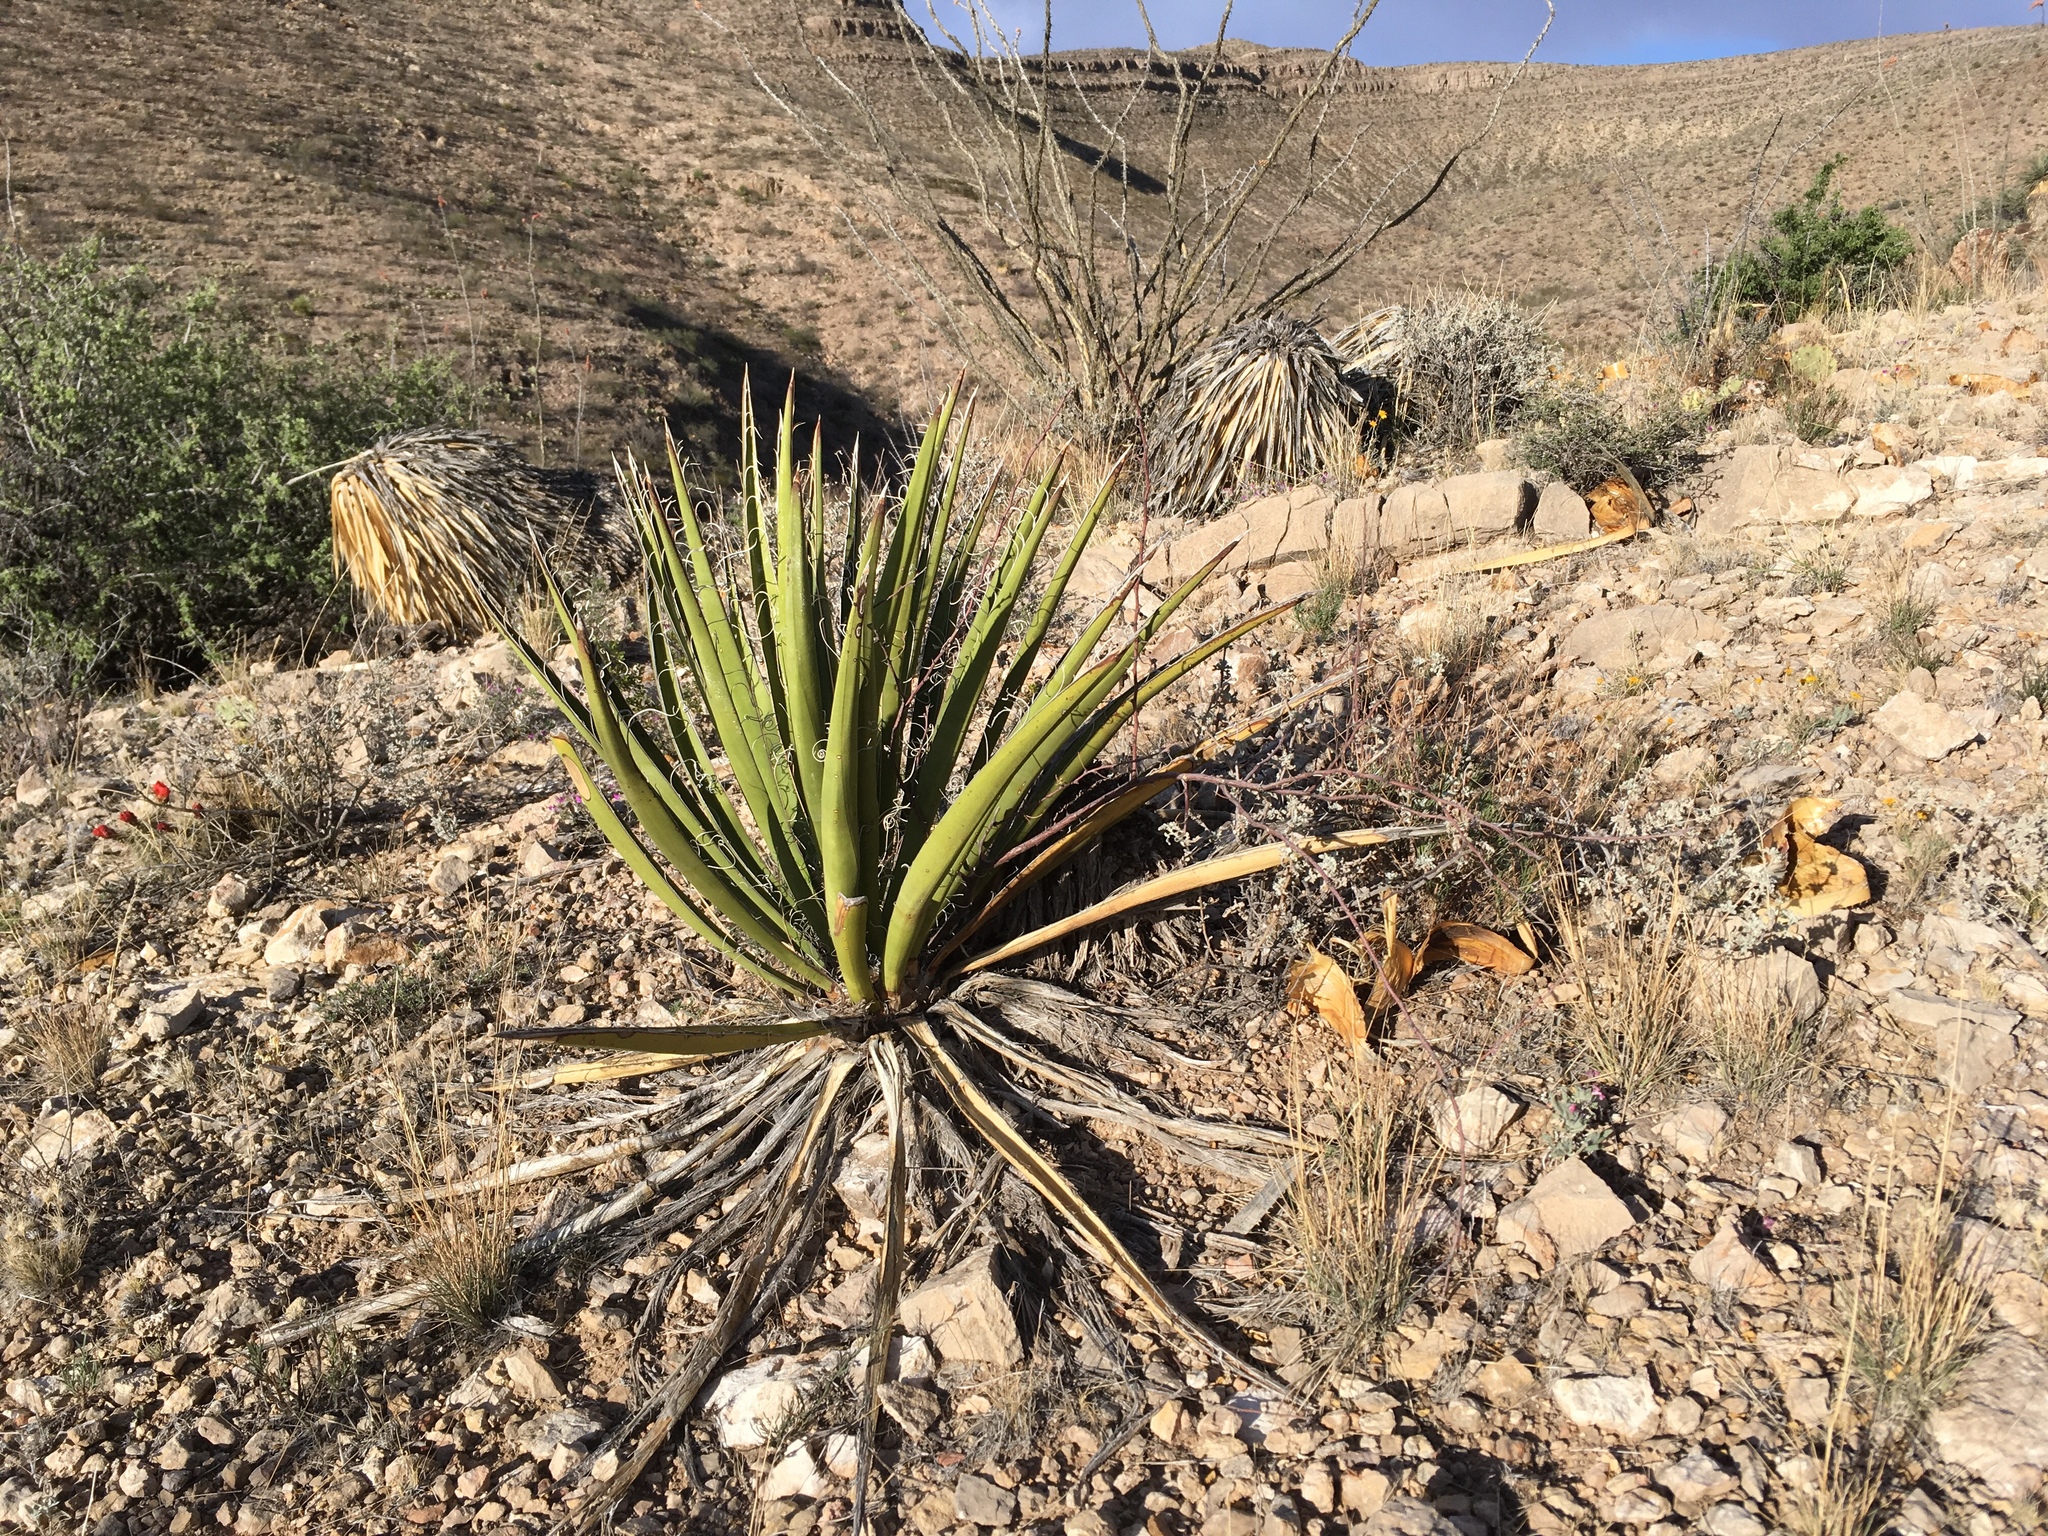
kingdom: Plantae
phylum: Tracheophyta
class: Liliopsida
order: Asparagales
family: Asparagaceae
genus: Yucca
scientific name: Yucca baccata
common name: Banana yucca
